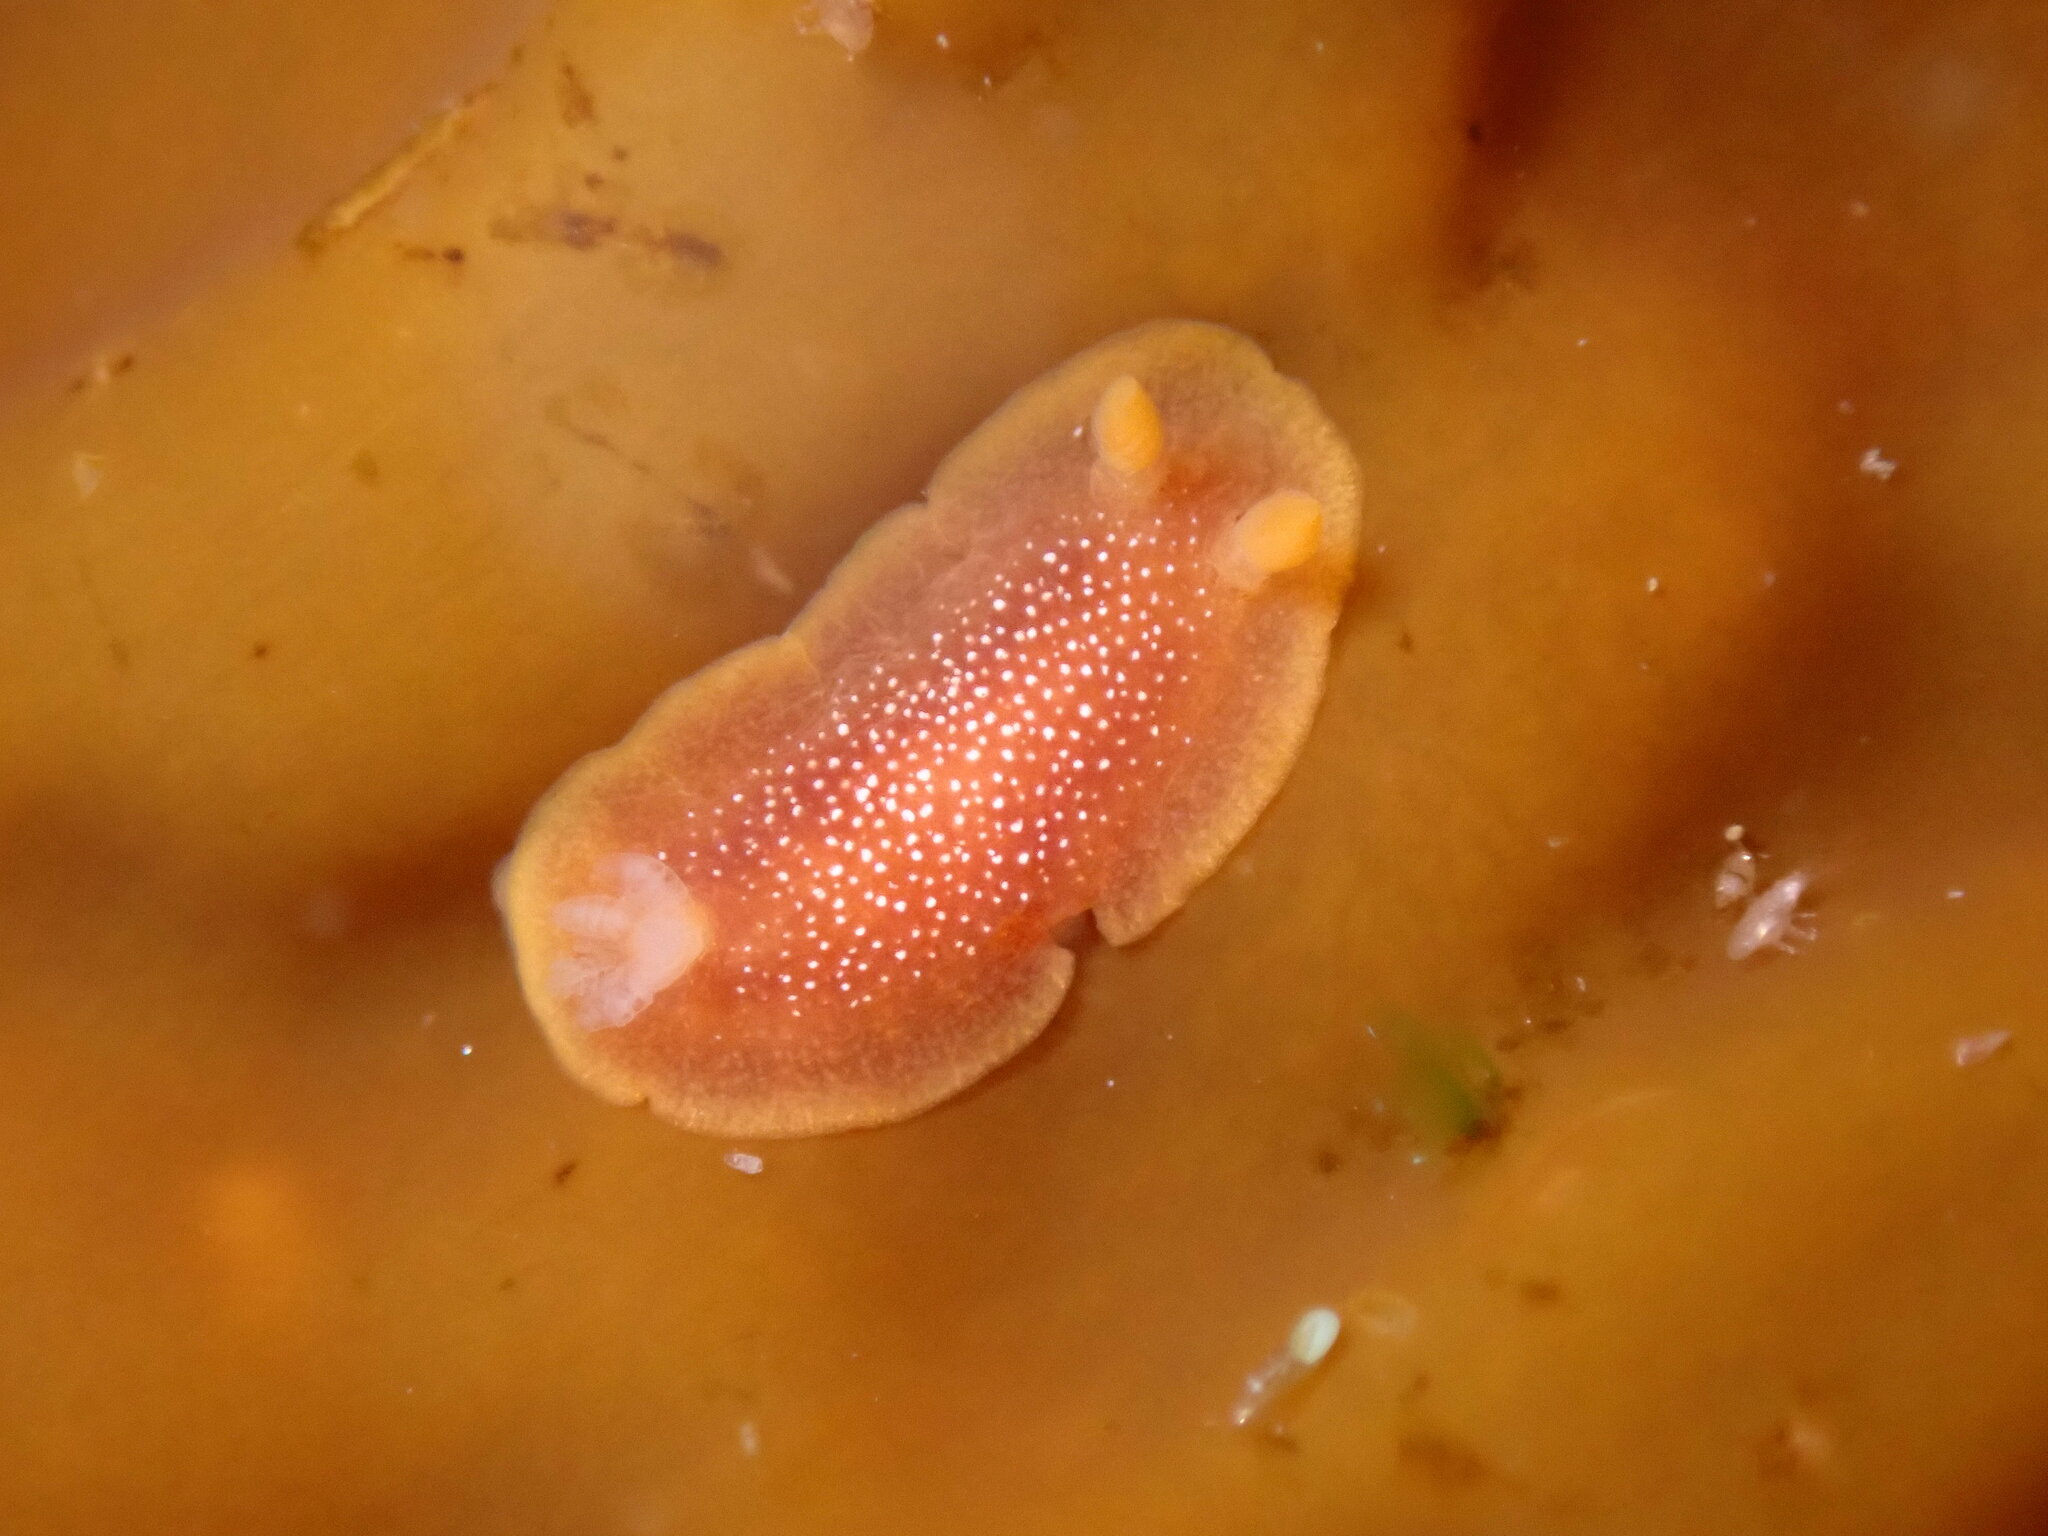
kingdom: Animalia
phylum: Mollusca
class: Gastropoda
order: Nudibranchia
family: Dendrodorididae
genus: Doriopsilla
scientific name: Doriopsilla albopunctata
